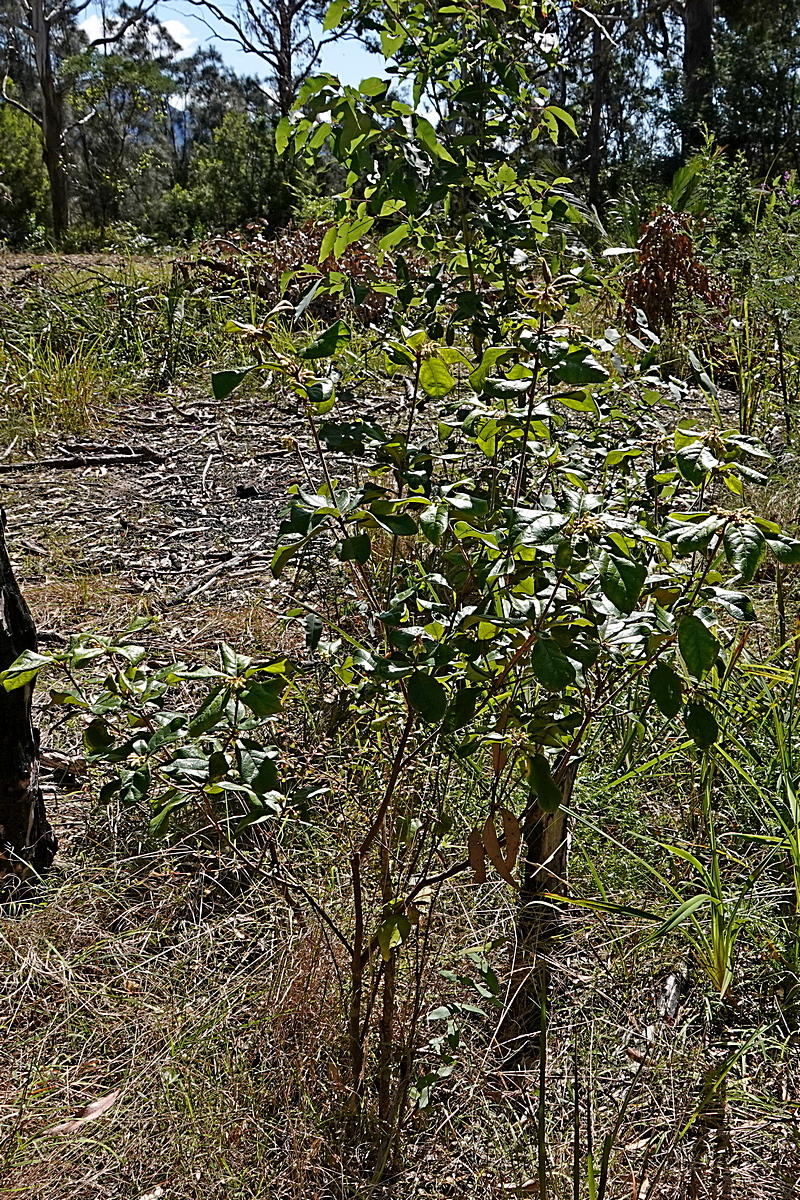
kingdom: Plantae
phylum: Tracheophyta
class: Magnoliopsida
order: Apiales
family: Pittosporaceae
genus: Pittosporum
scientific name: Pittosporum revolutum
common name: Brisbane-laurel
